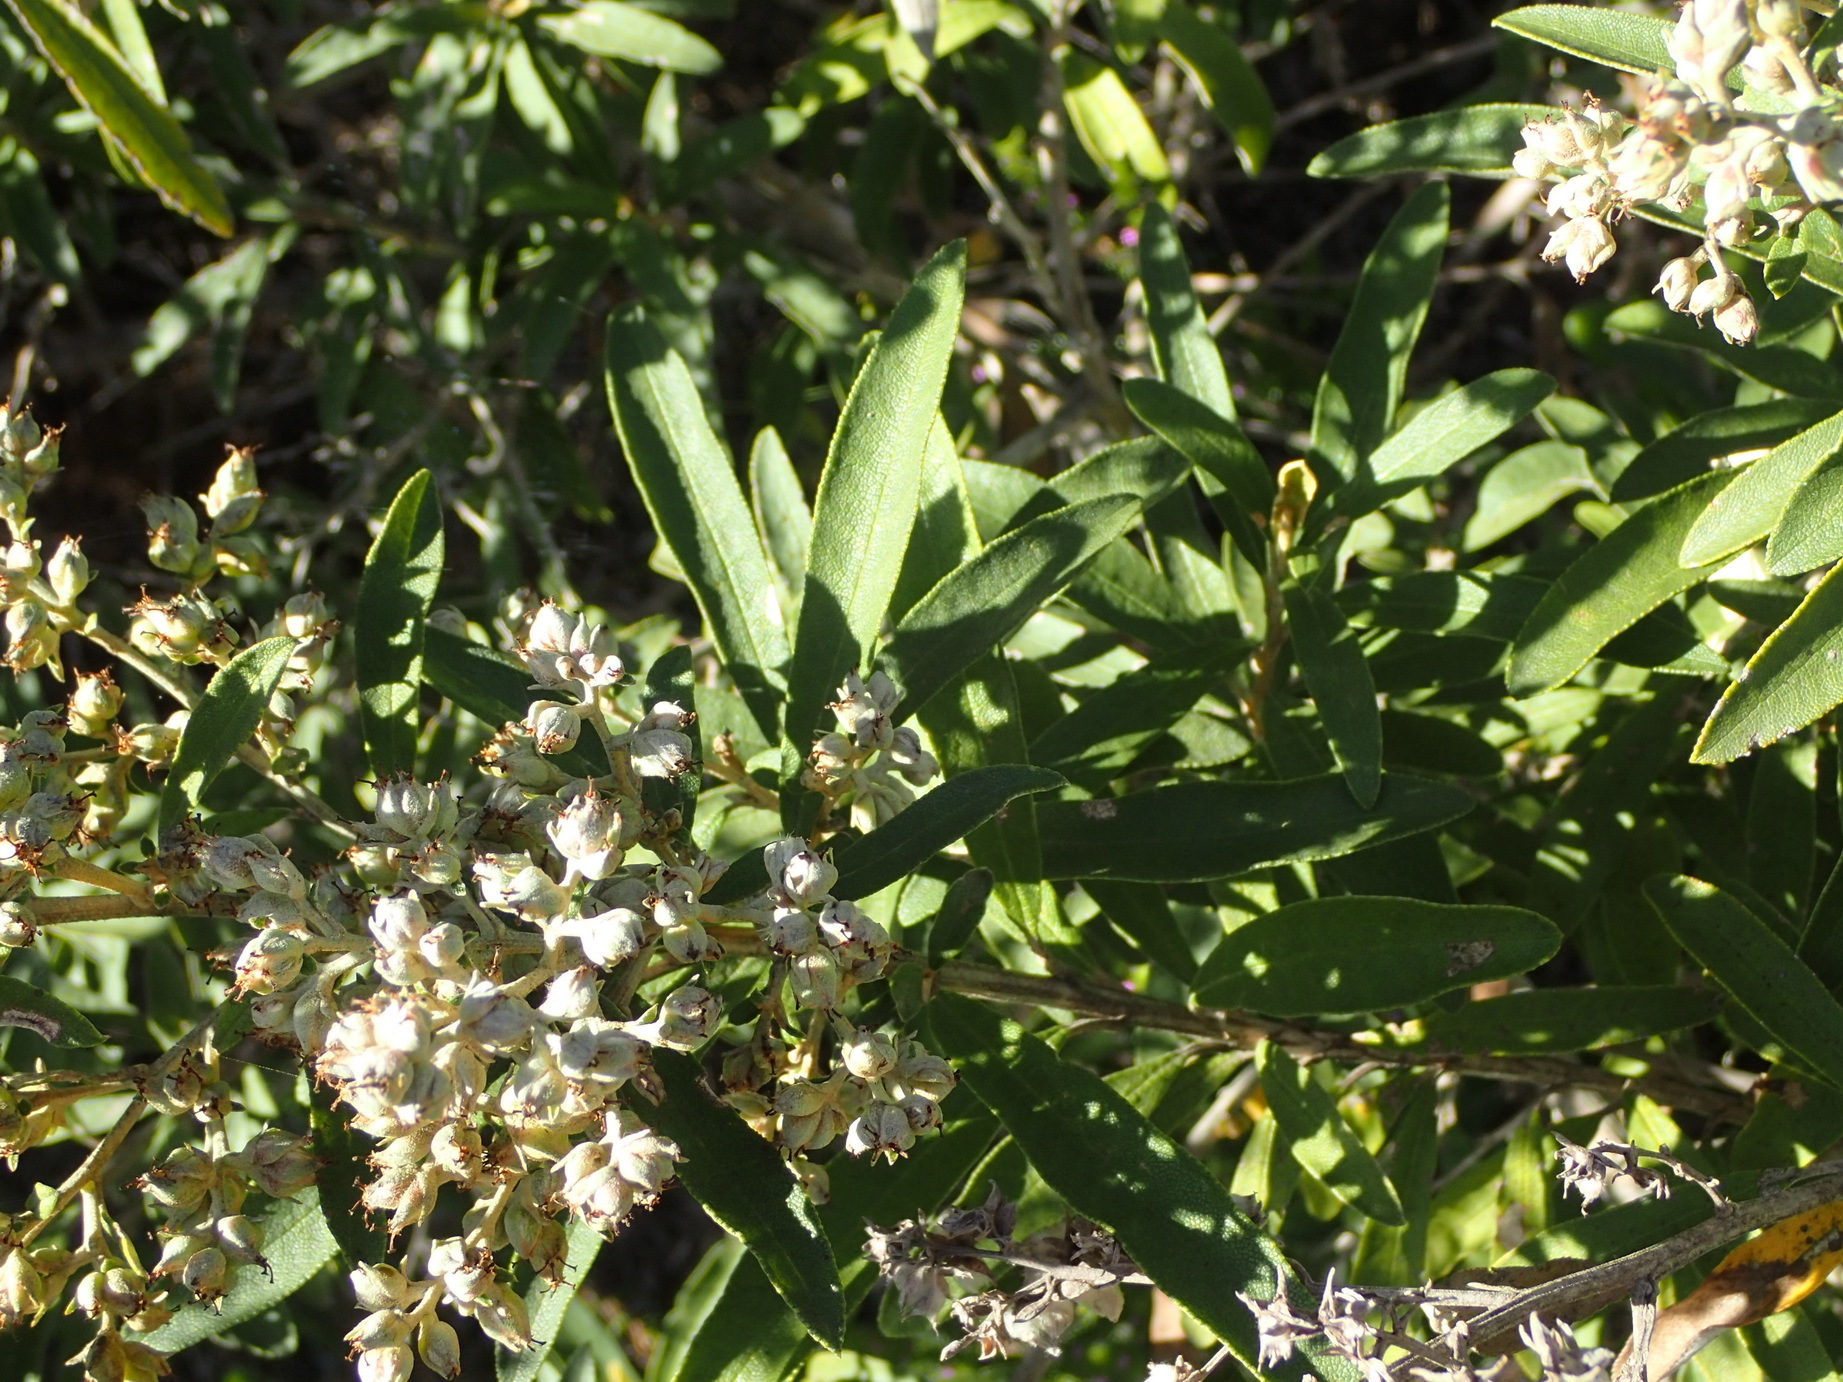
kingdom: Plantae
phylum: Tracheophyta
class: Magnoliopsida
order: Asterales
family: Asteraceae
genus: Tarchonanthus
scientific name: Tarchonanthus littoralis
